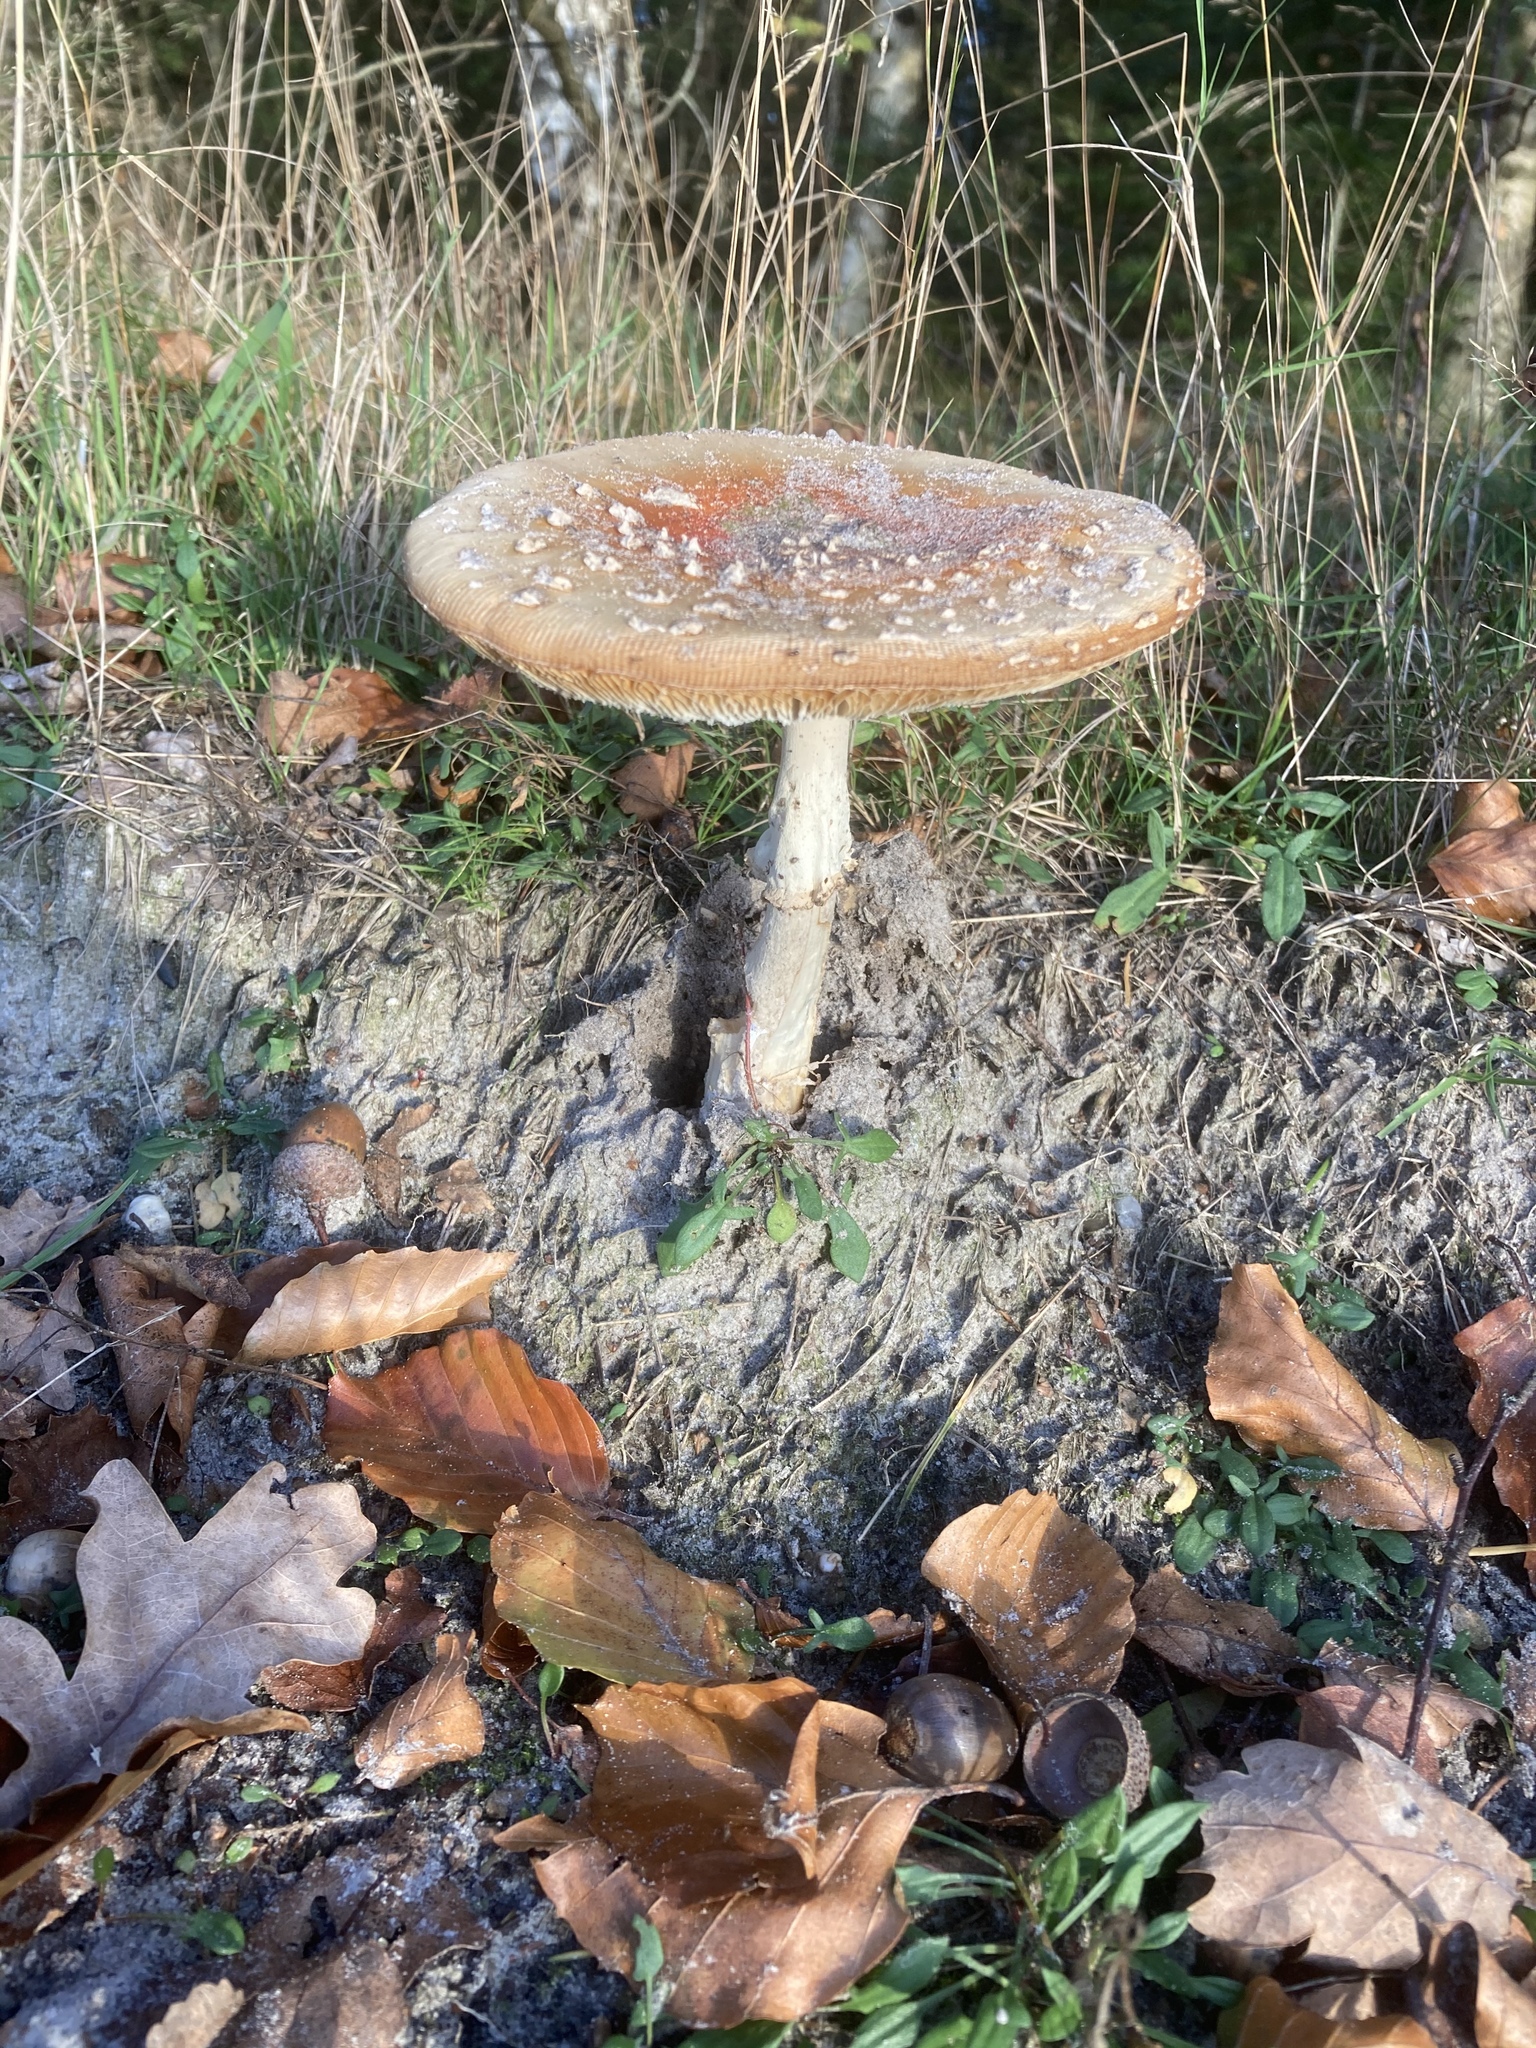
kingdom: Fungi
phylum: Basidiomycota
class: Agaricomycetes
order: Agaricales
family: Amanitaceae
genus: Amanita
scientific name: Amanita muscaria
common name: Fly agaric
